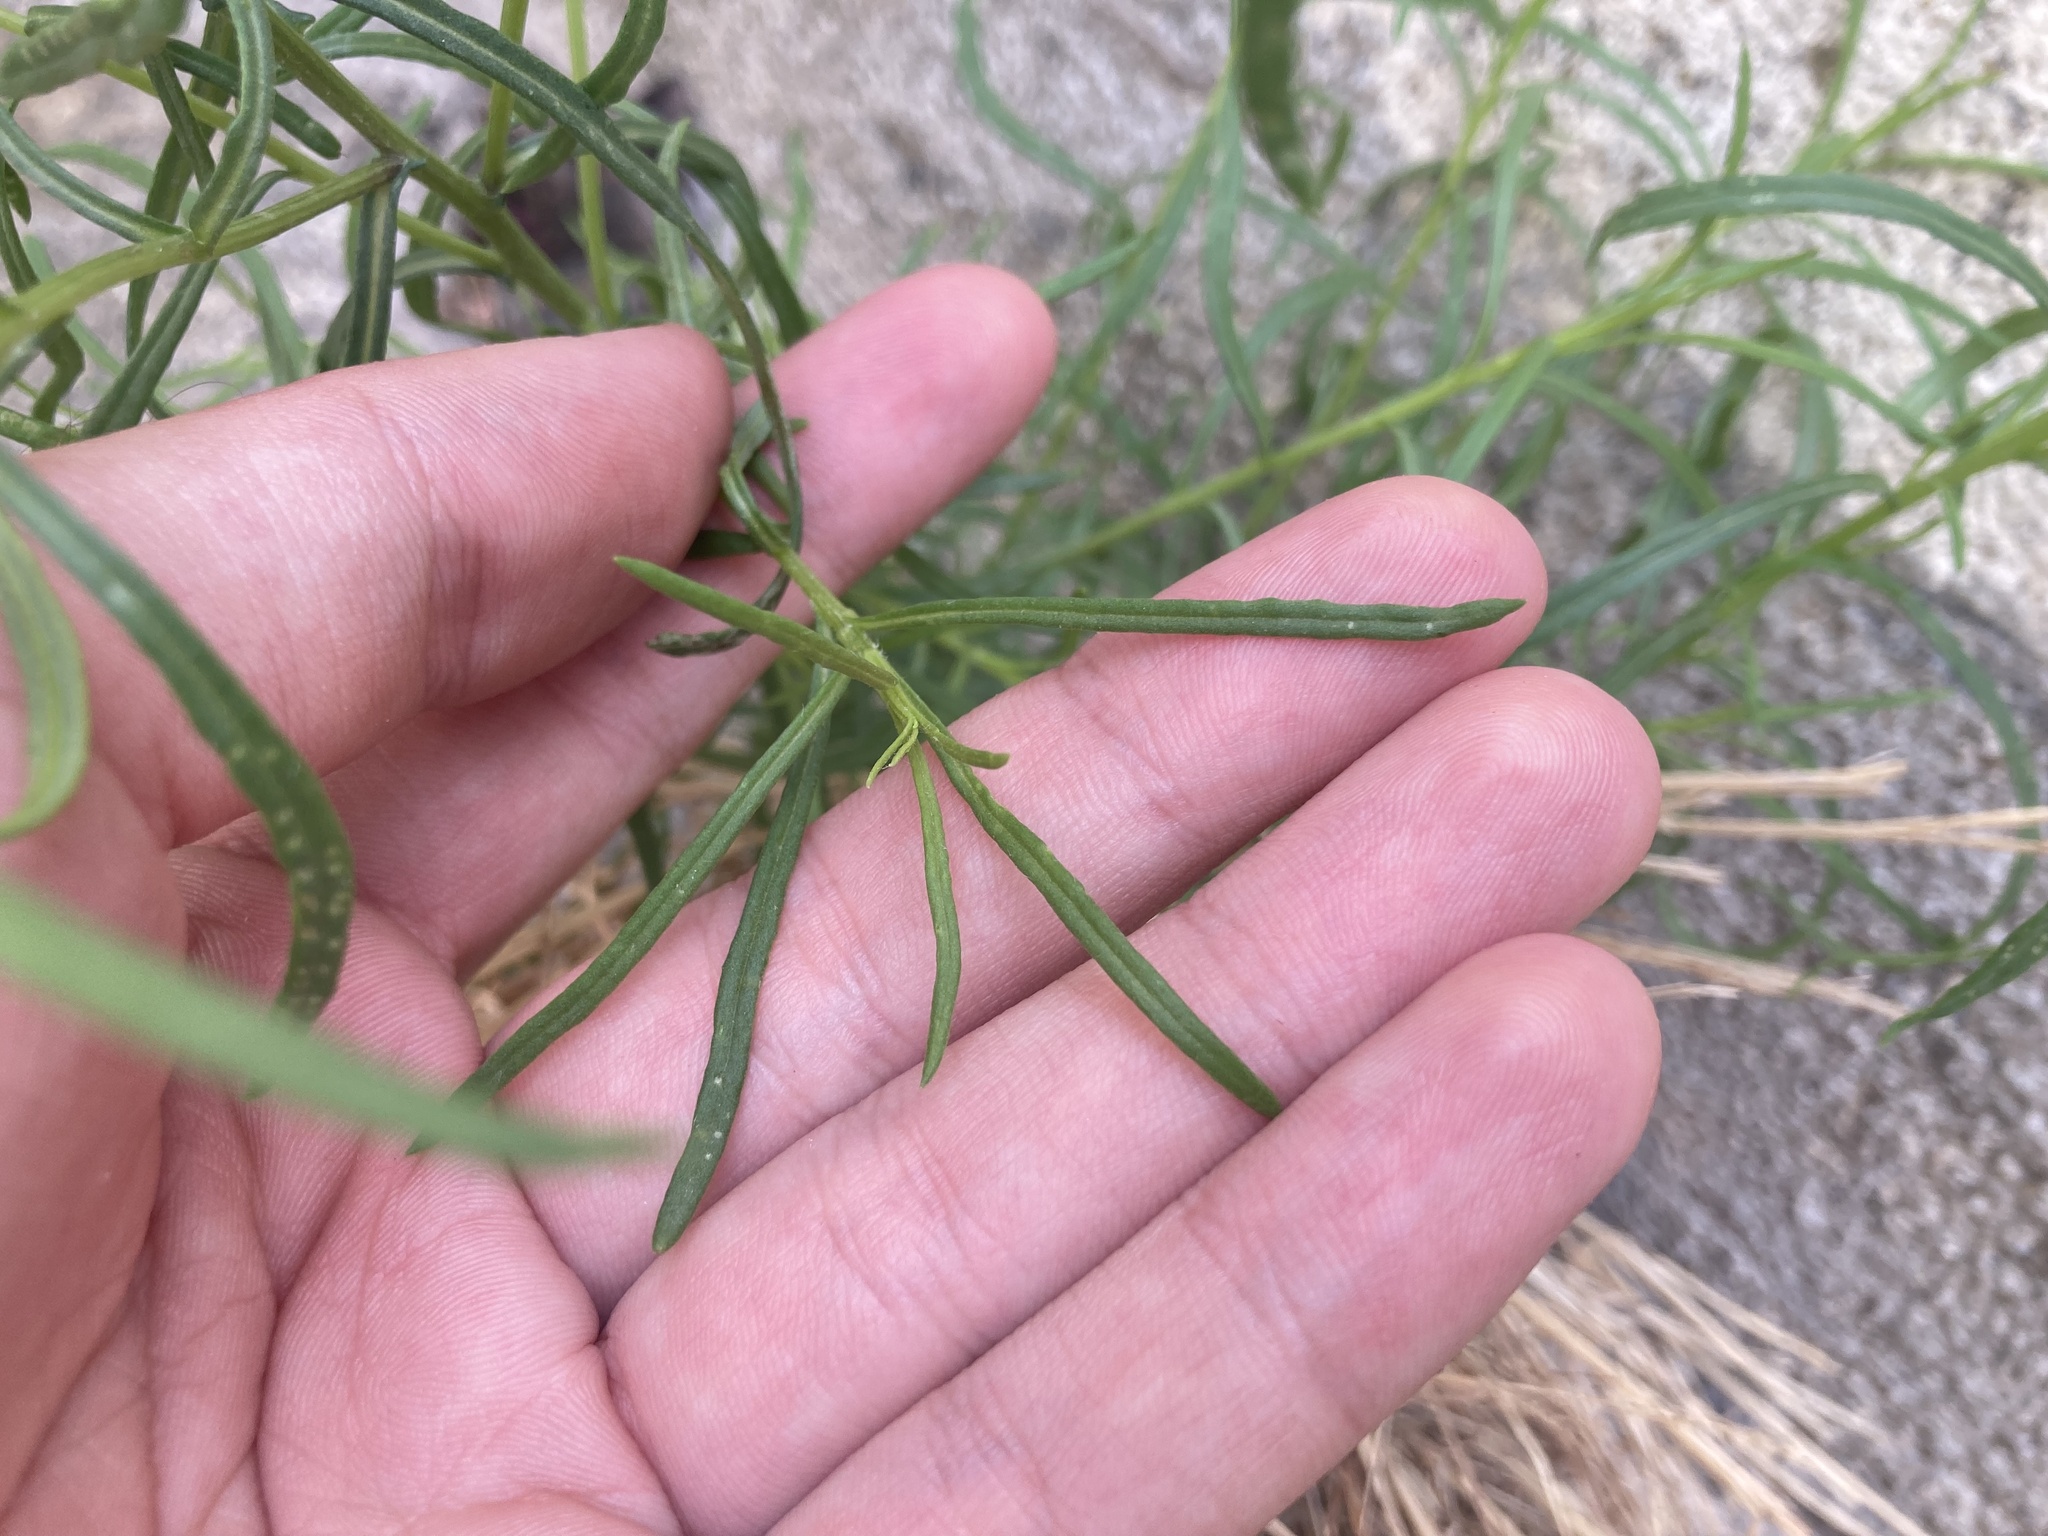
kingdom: Plantae
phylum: Tracheophyta
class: Magnoliopsida
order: Asterales
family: Asteraceae
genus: Senecio
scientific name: Senecio inaequidens
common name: Narrow-leaved ragwort
